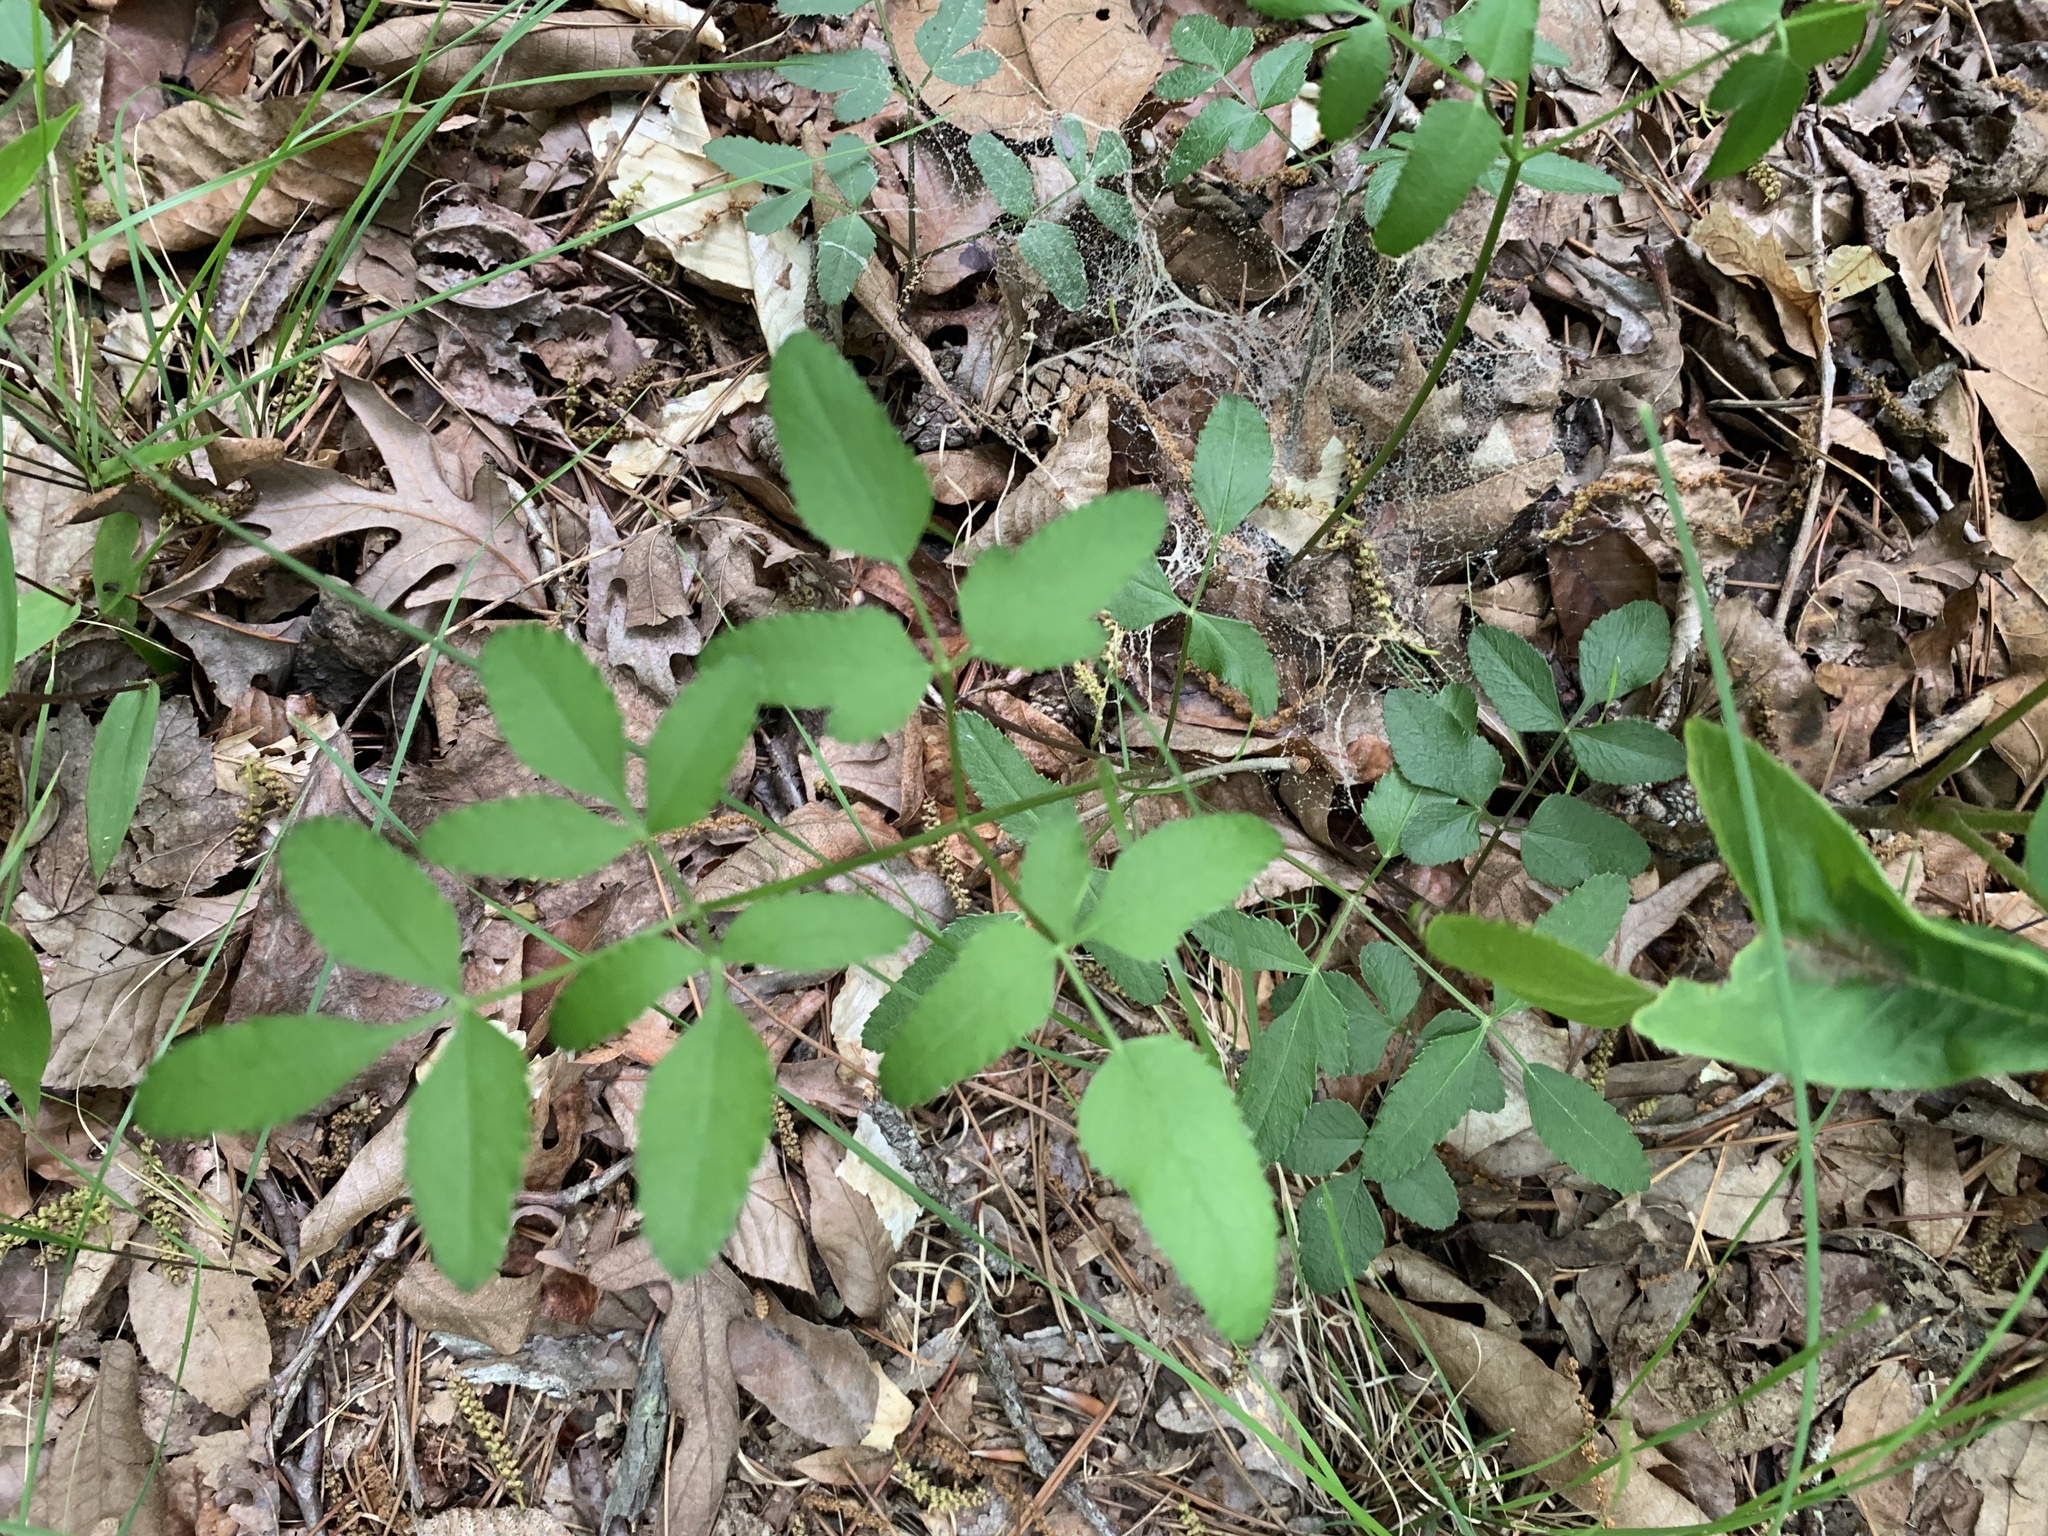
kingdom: Plantae
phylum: Tracheophyta
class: Magnoliopsida
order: Apiales
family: Apiaceae
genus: Angelica
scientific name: Angelica venenosa
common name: Hairy angelica
